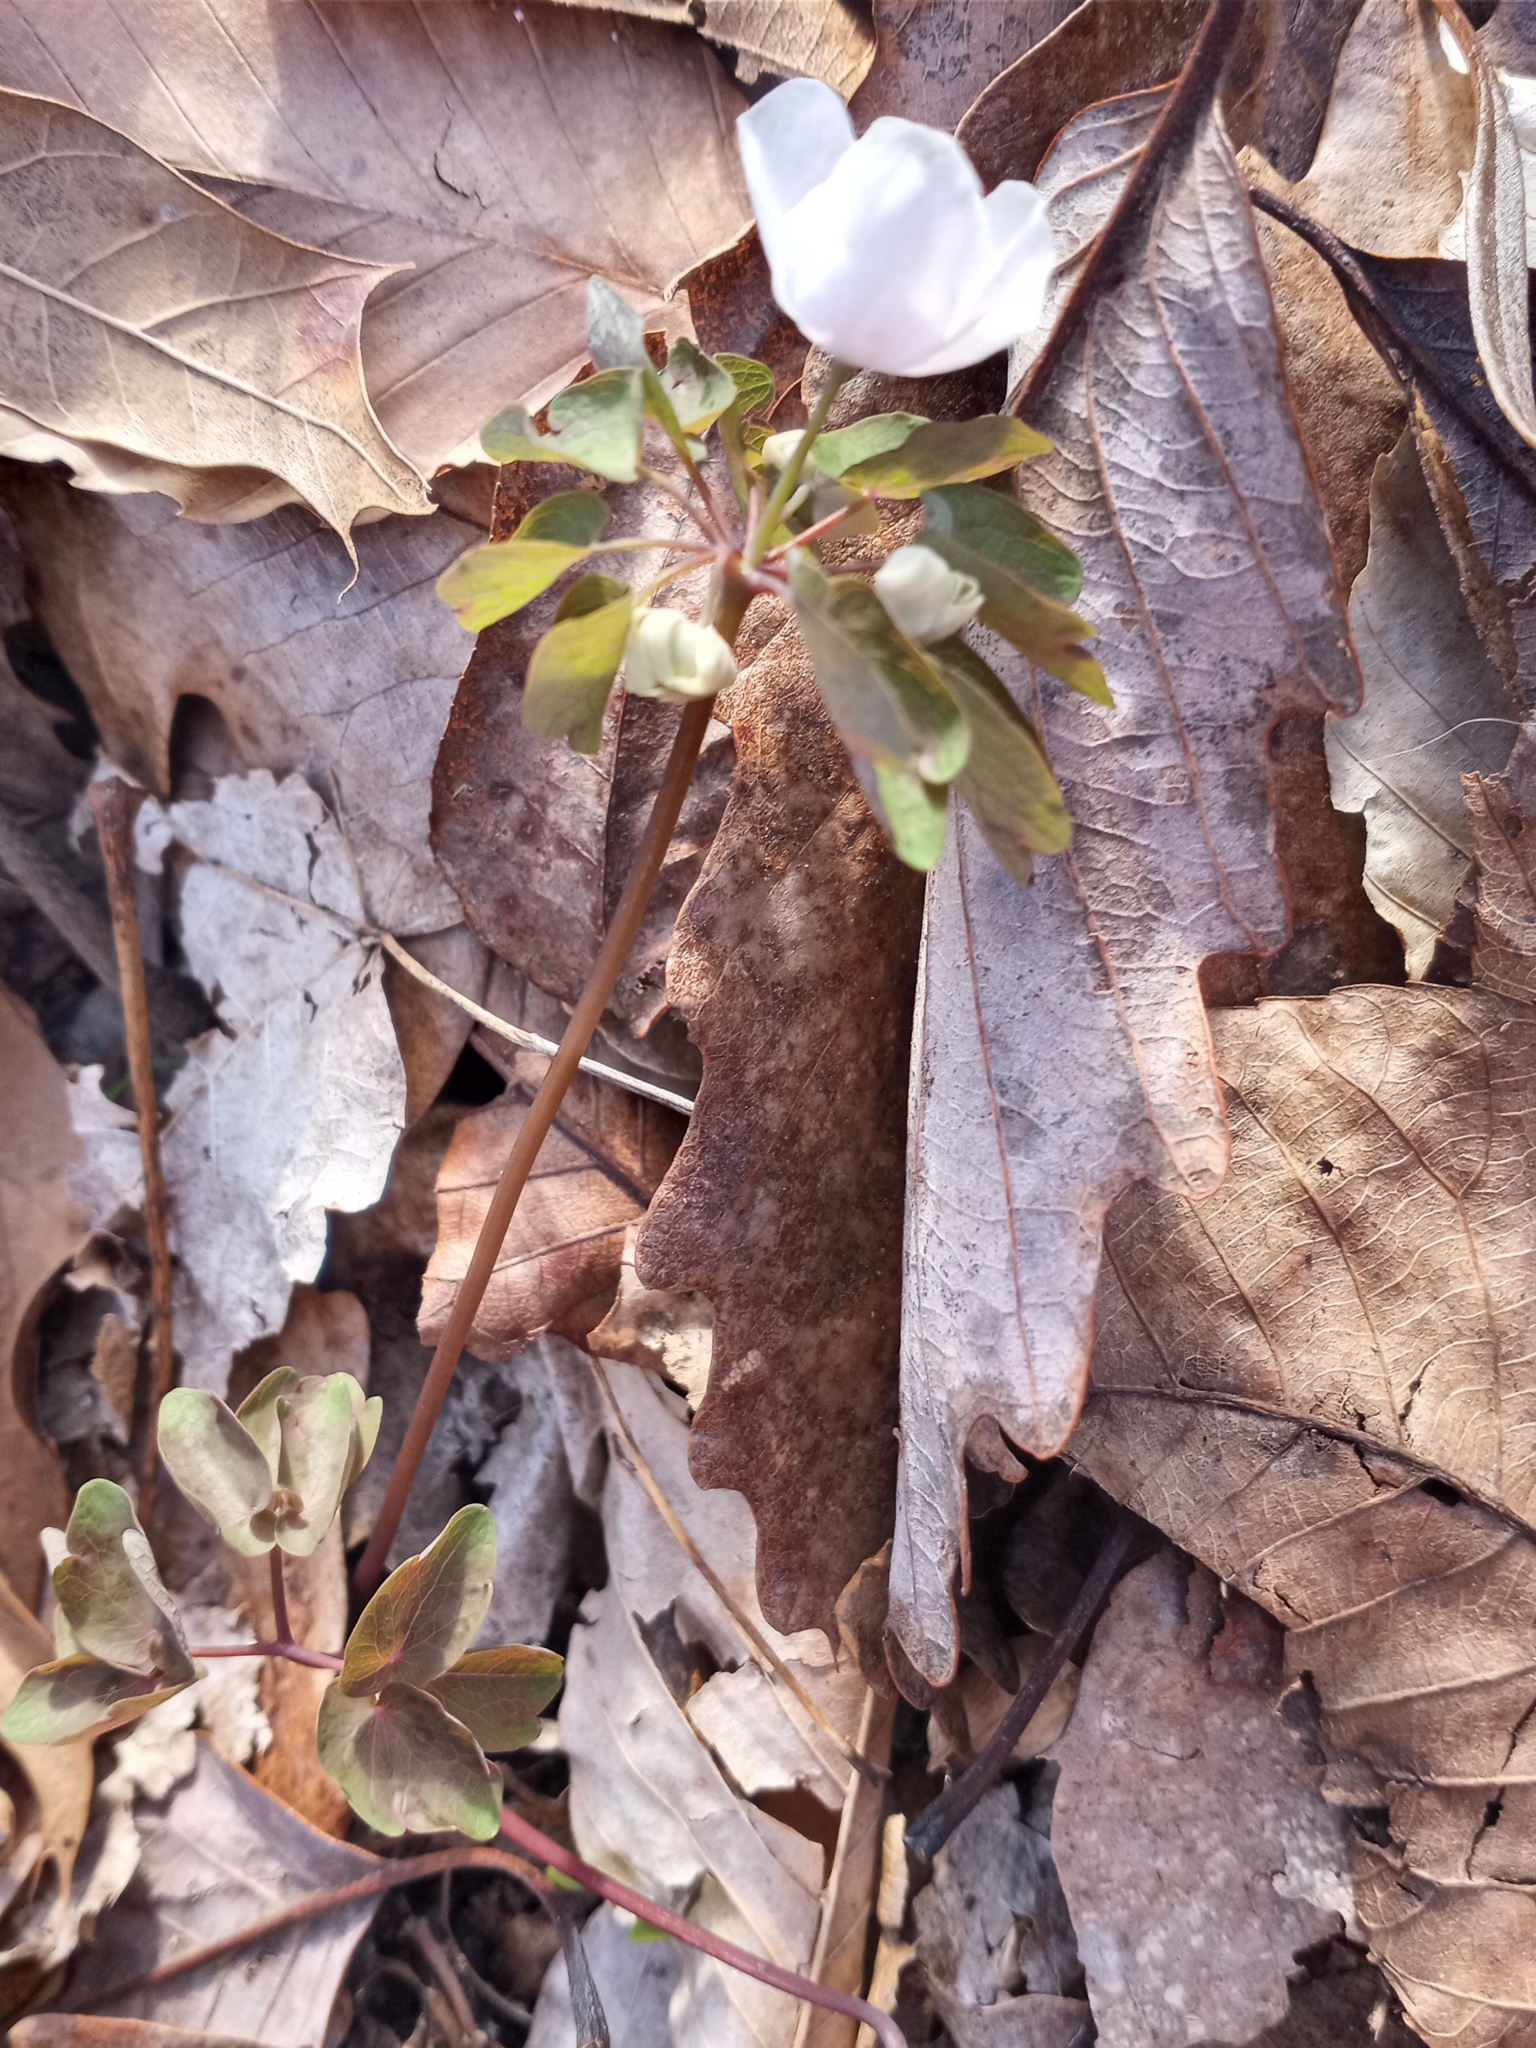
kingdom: Plantae
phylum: Tracheophyta
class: Magnoliopsida
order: Ranunculales
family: Ranunculaceae
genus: Thalictrum
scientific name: Thalictrum thalictroides
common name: Rue-anemone
